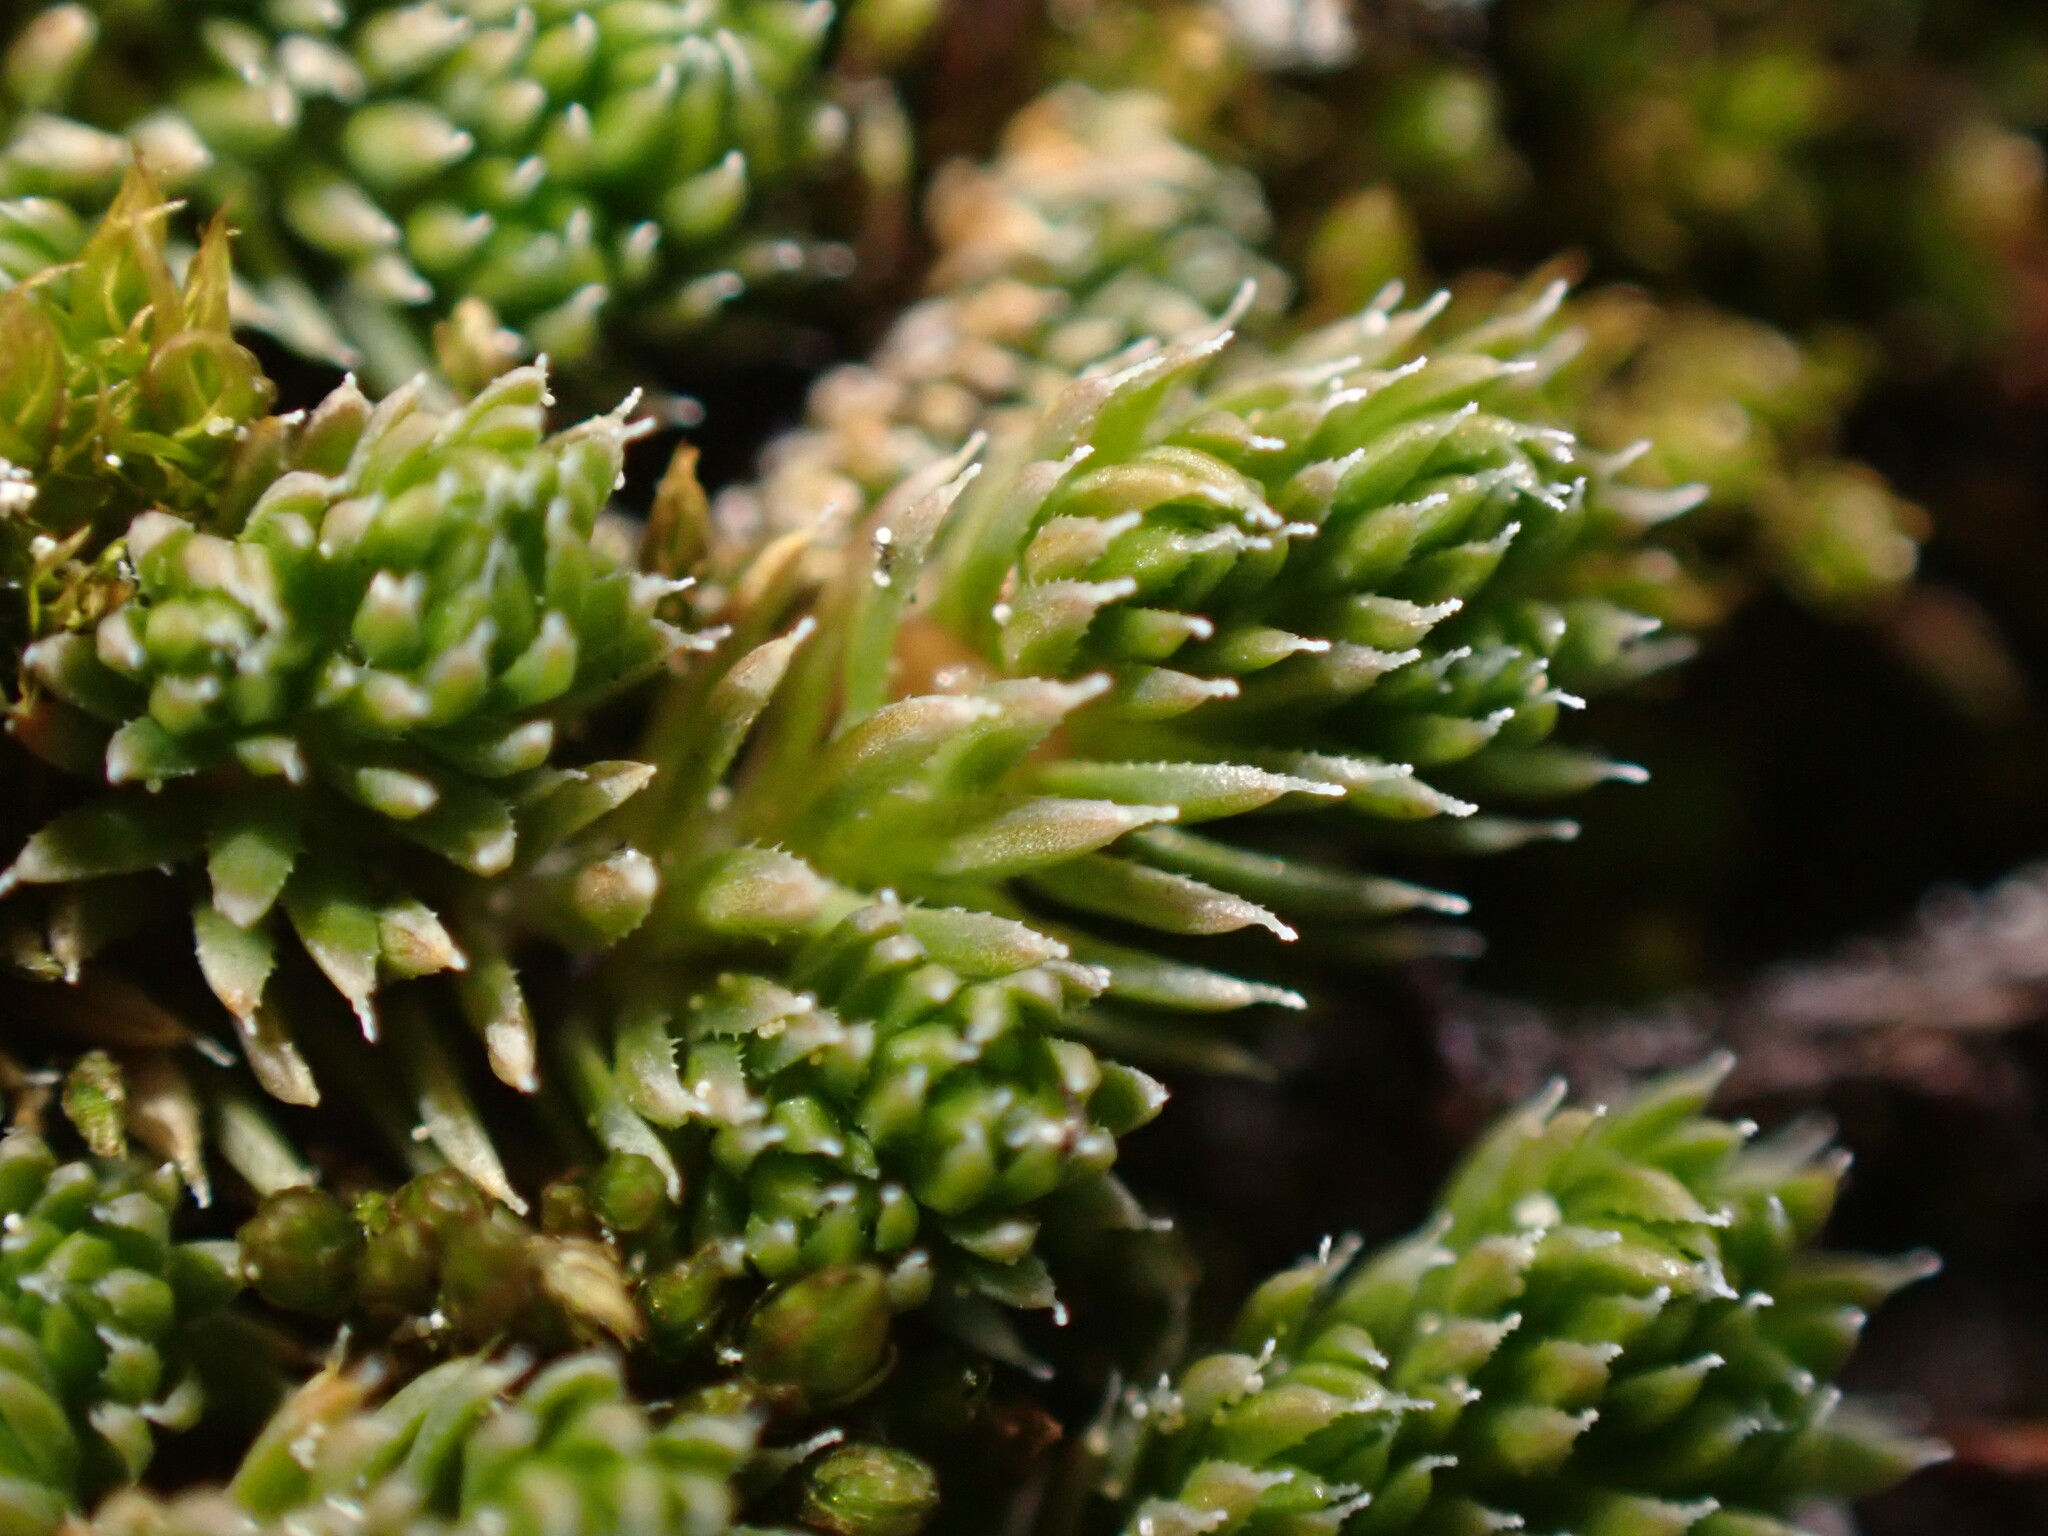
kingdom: Plantae
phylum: Tracheophyta
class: Lycopodiopsida
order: Selaginellales
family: Selaginellaceae
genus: Selaginella
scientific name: Selaginella densa
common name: Mountain spike-moss
